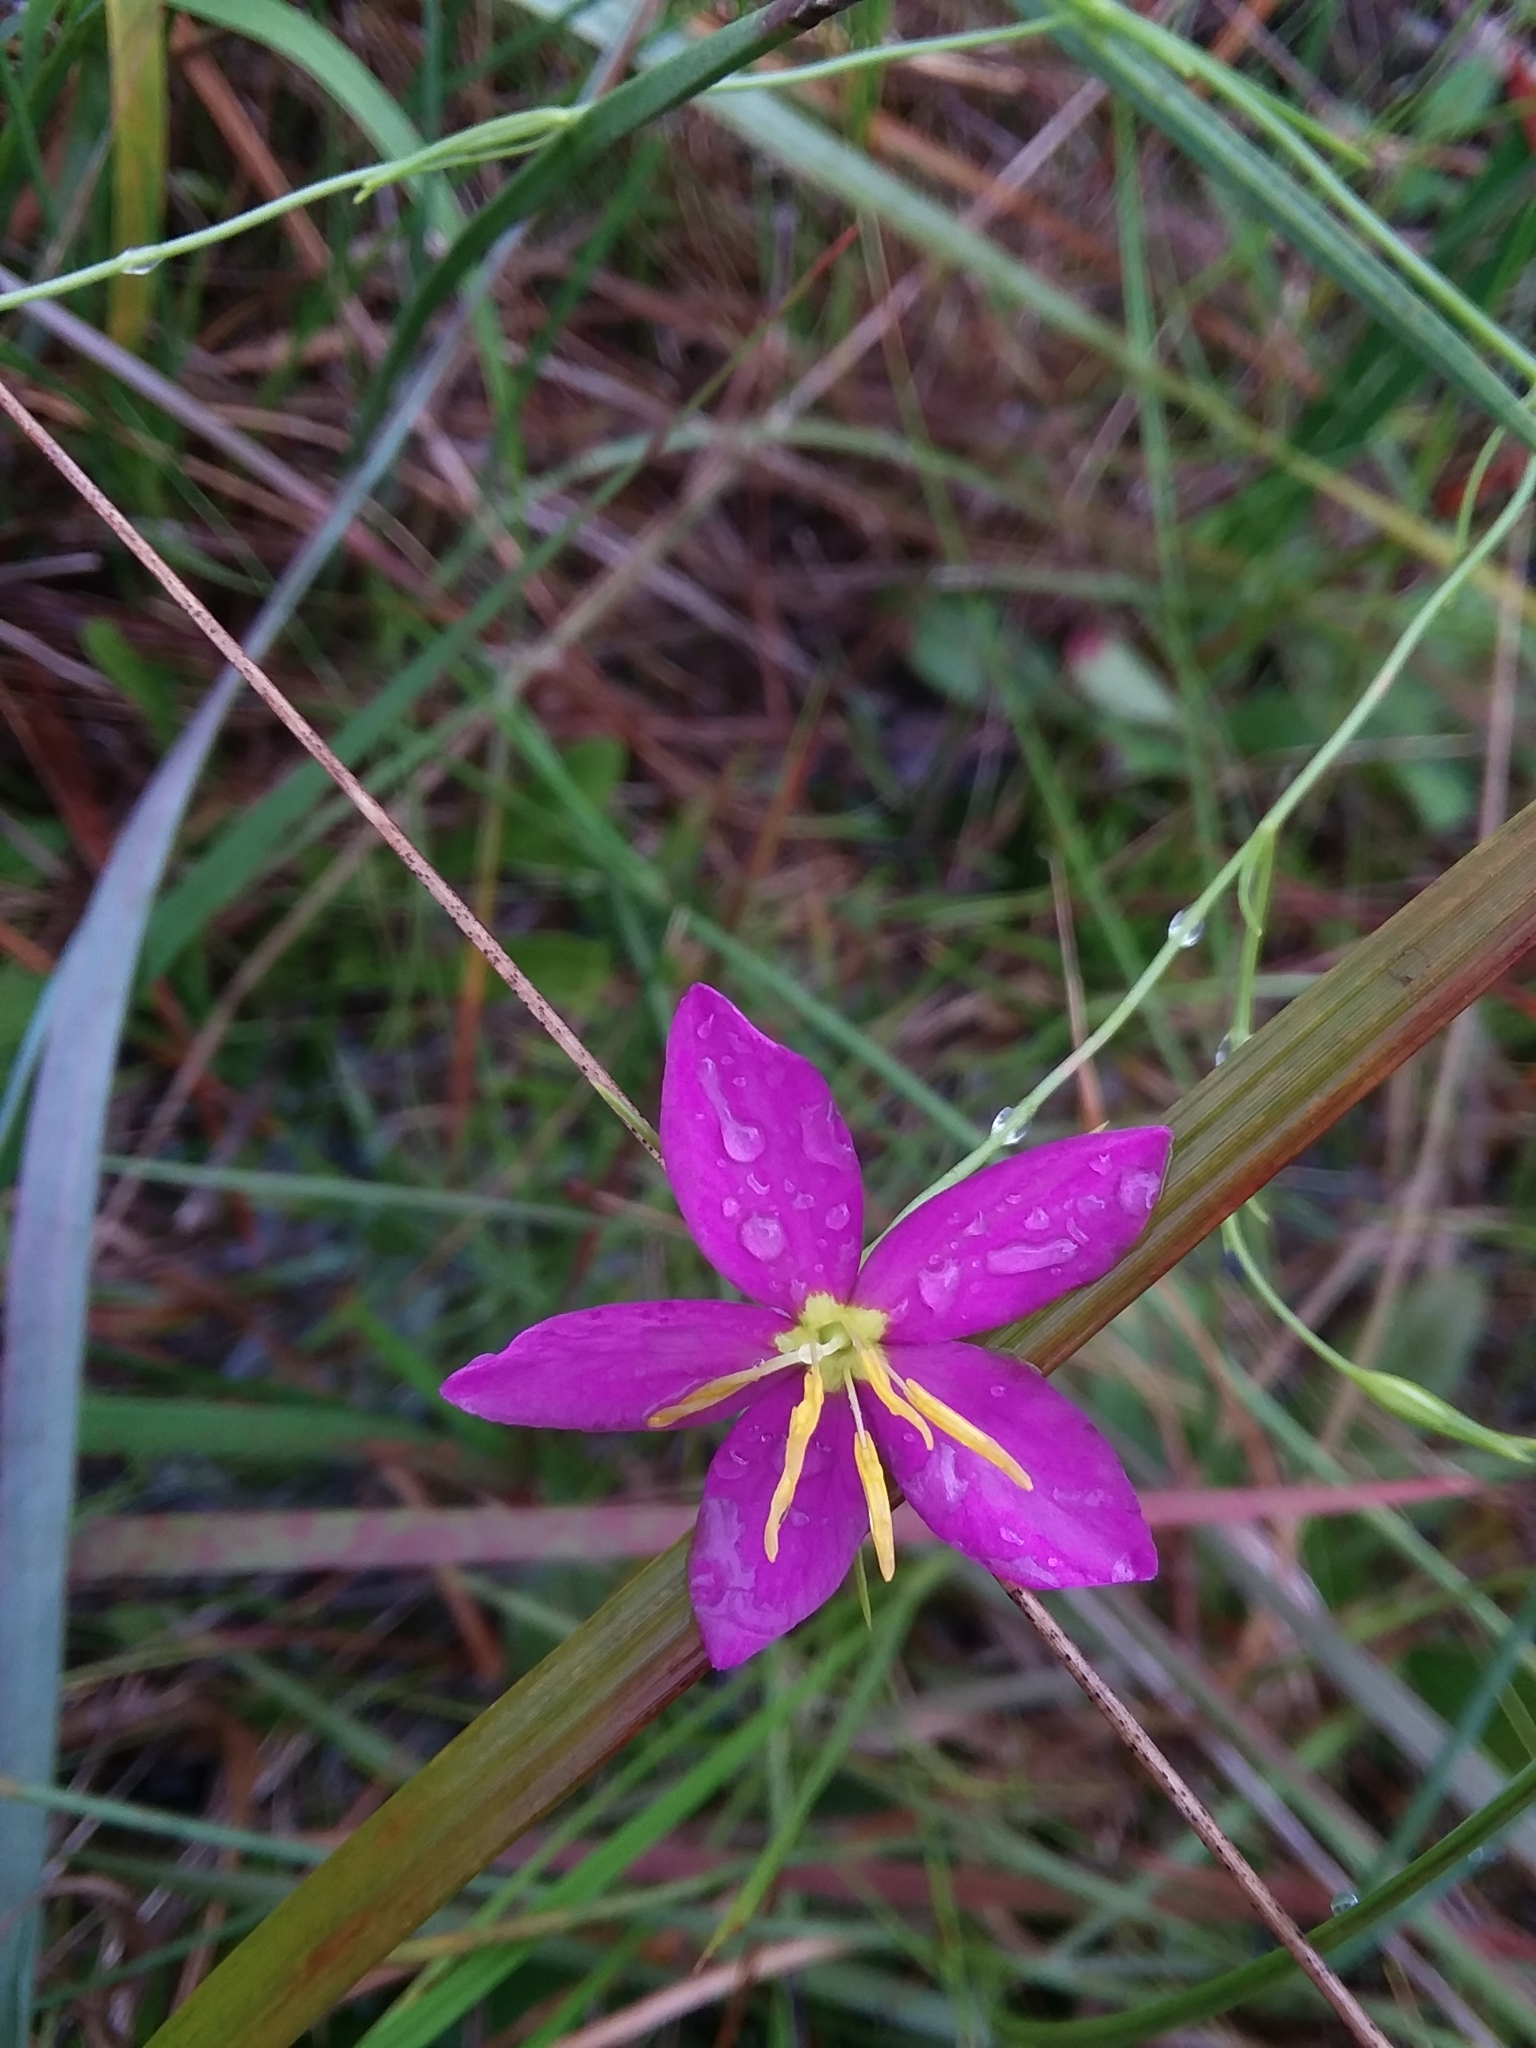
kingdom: Plantae
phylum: Tracheophyta
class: Magnoliopsida
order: Gentianales
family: Gentianaceae
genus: Sabatia
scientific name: Sabatia campanulata
